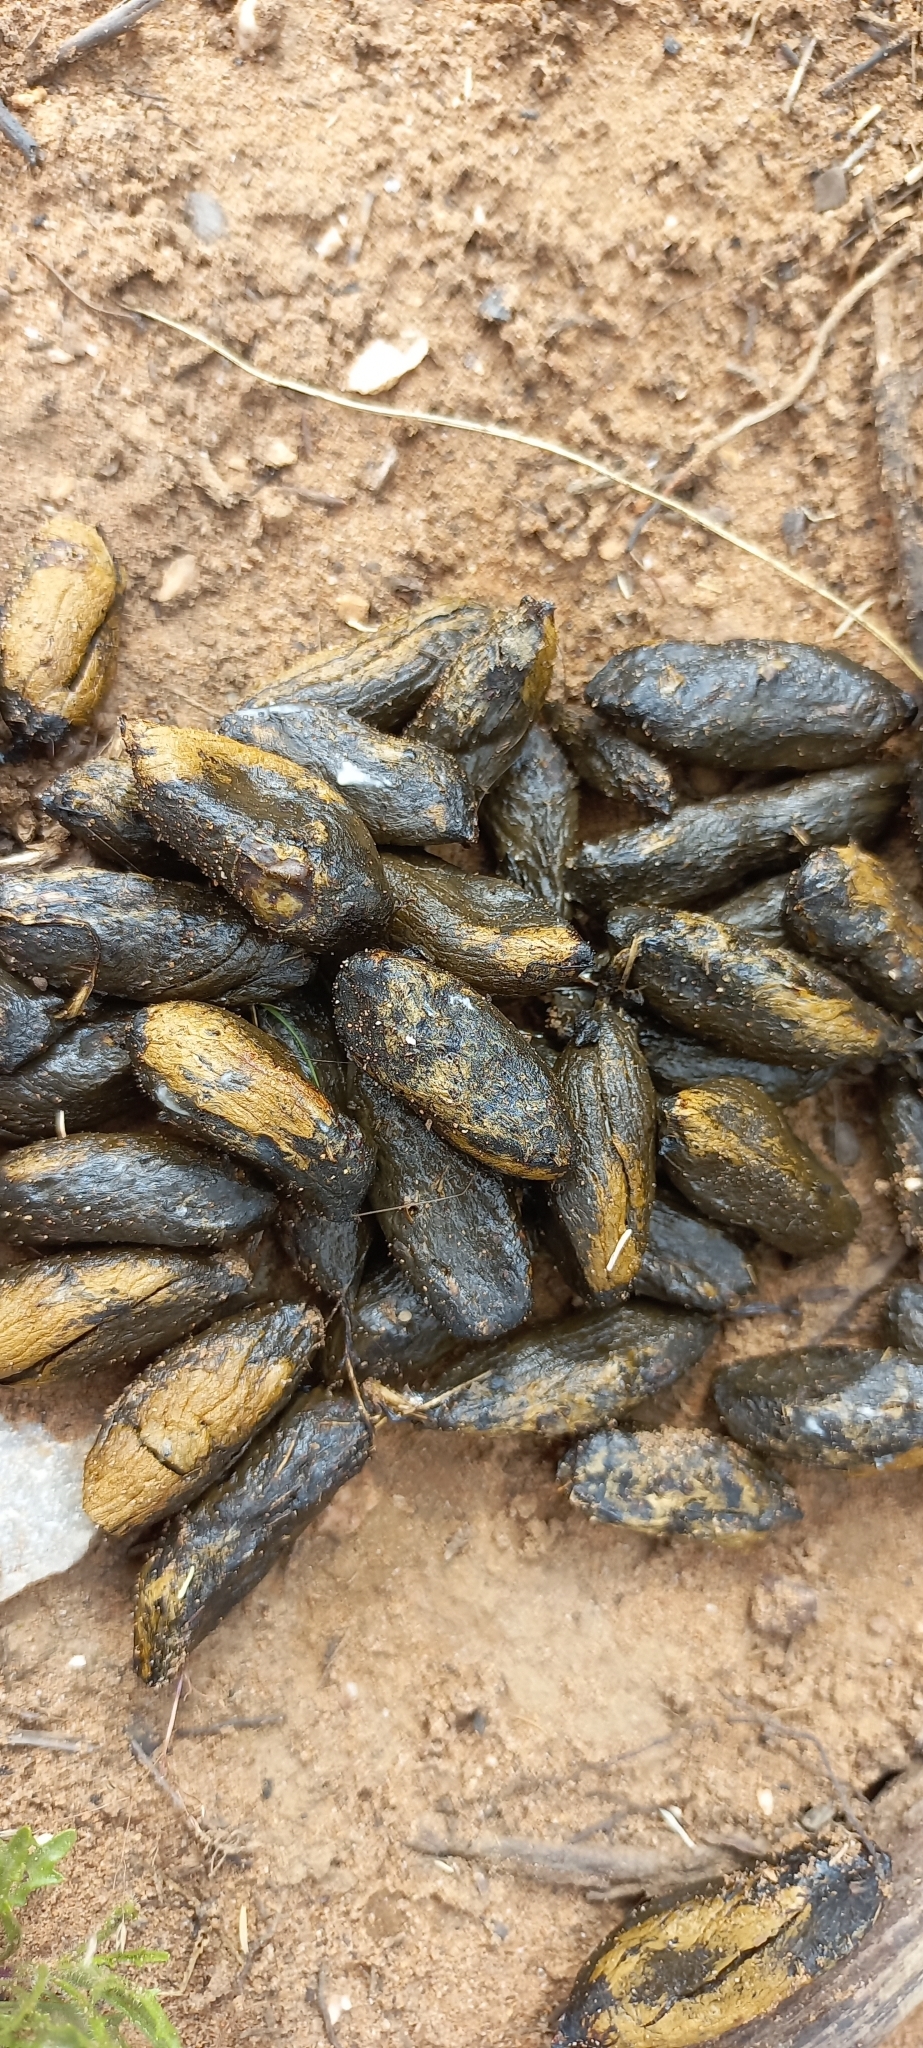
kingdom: Animalia
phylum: Chordata
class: Mammalia
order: Rodentia
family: Hystricidae
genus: Hystrix
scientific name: Hystrix africaeaustralis
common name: Cape porcupine
